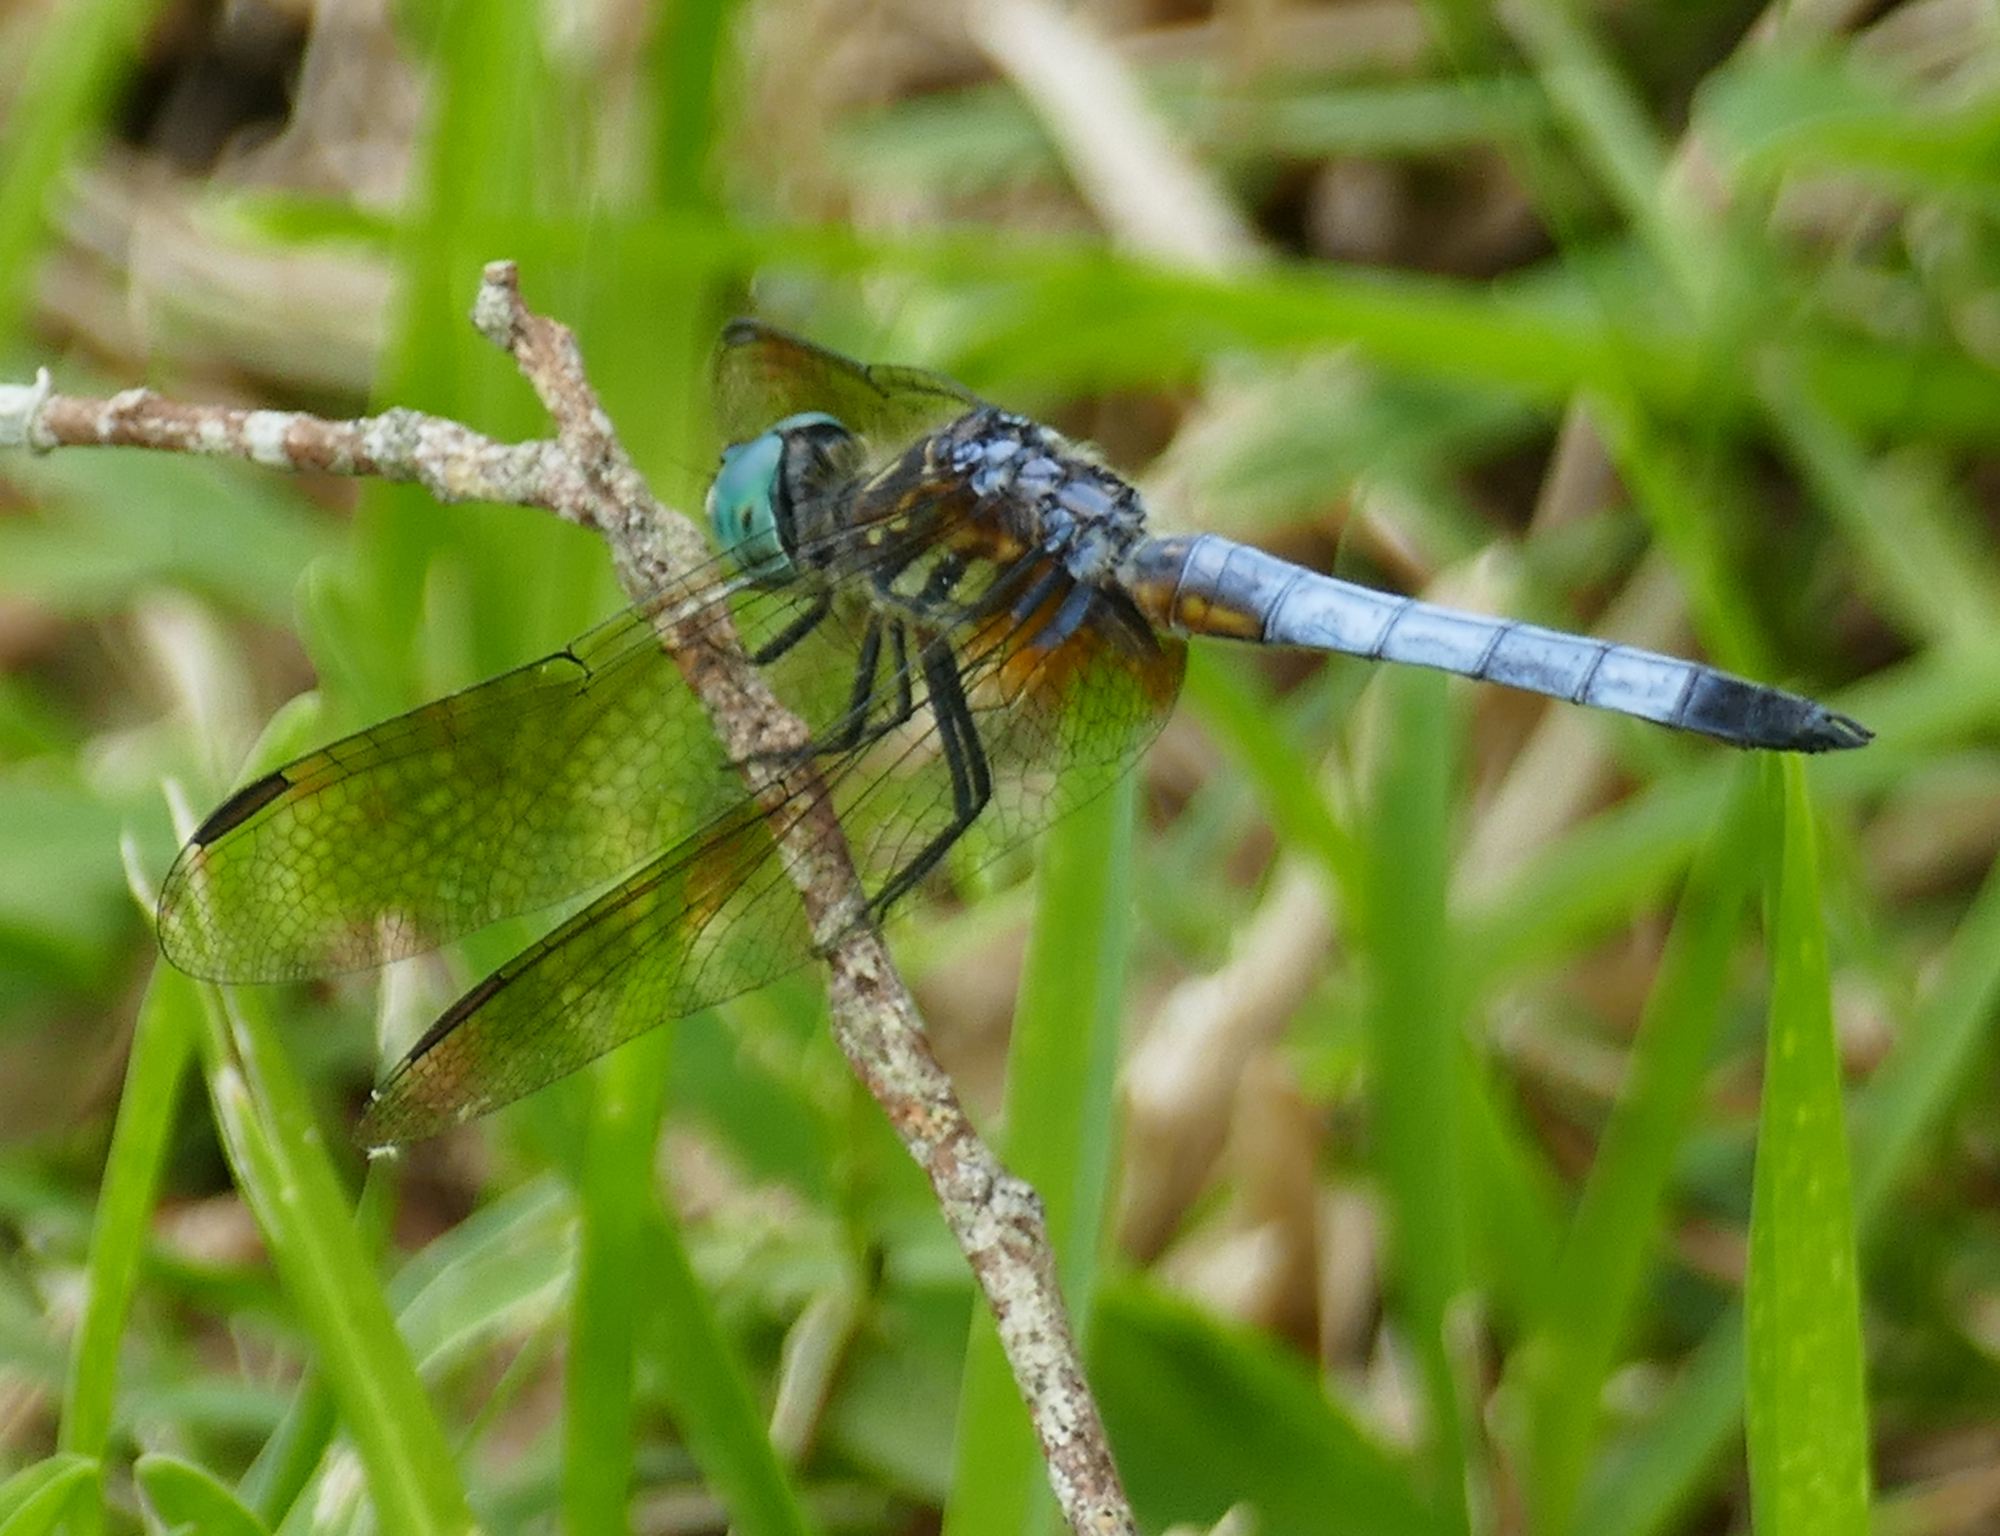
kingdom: Animalia
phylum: Arthropoda
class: Insecta
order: Odonata
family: Libellulidae
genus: Pachydiplax
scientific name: Pachydiplax longipennis
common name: Blue dasher
